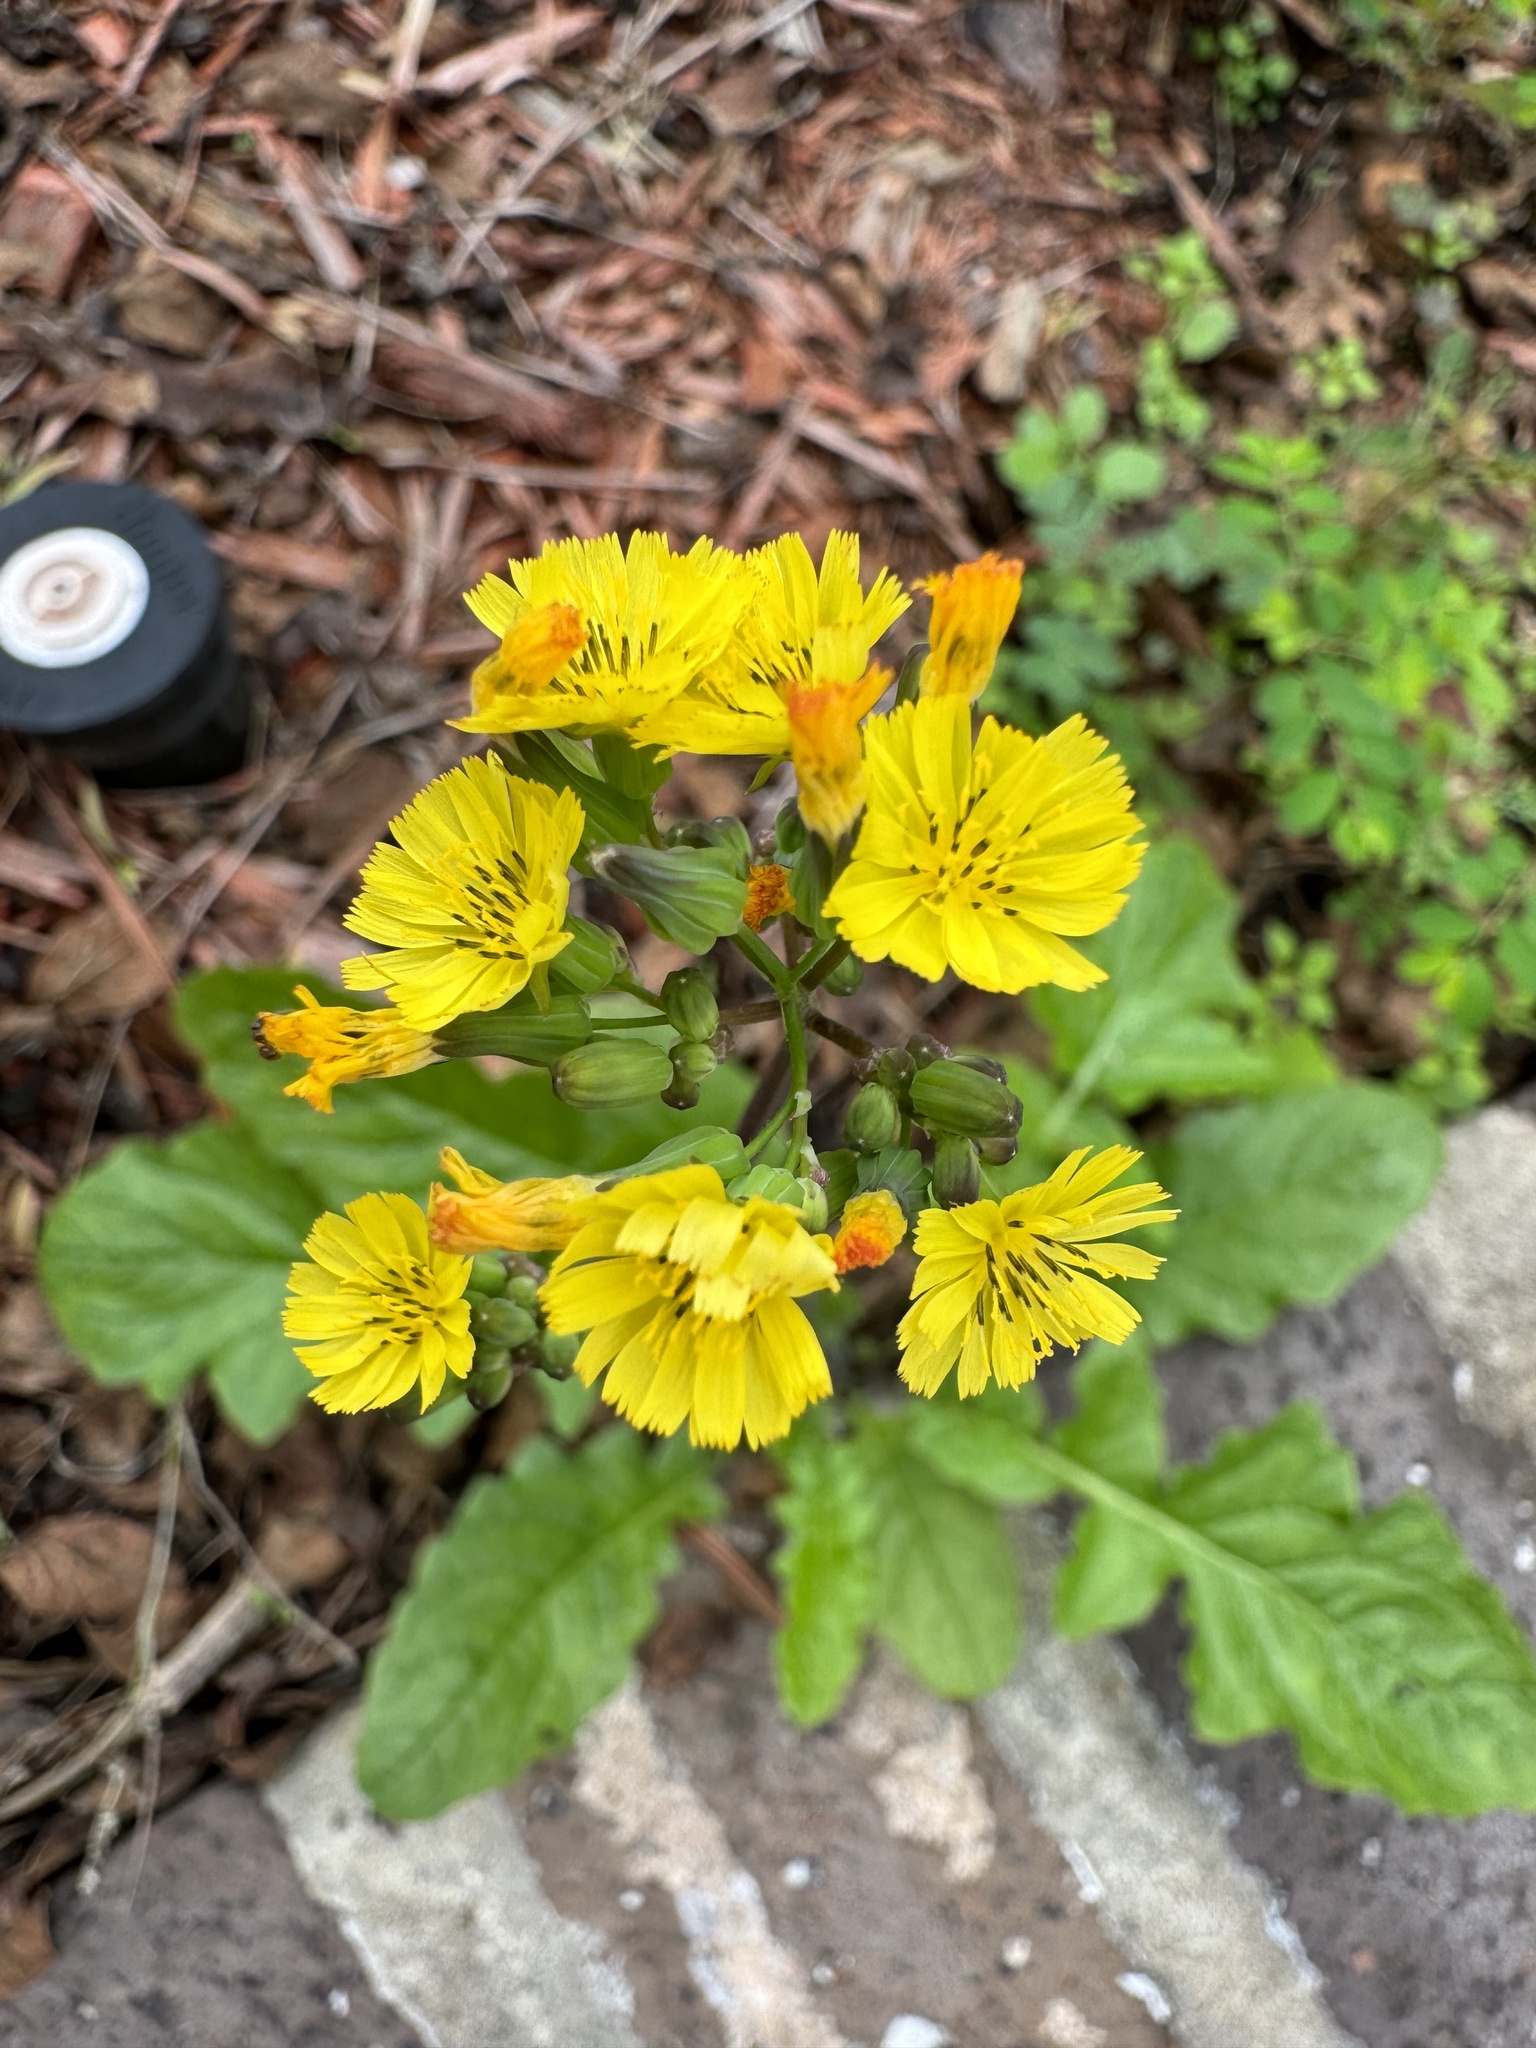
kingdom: Plantae
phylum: Tracheophyta
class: Magnoliopsida
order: Asterales
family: Asteraceae
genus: Youngia
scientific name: Youngia japonica
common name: Oriental false hawksbeard
